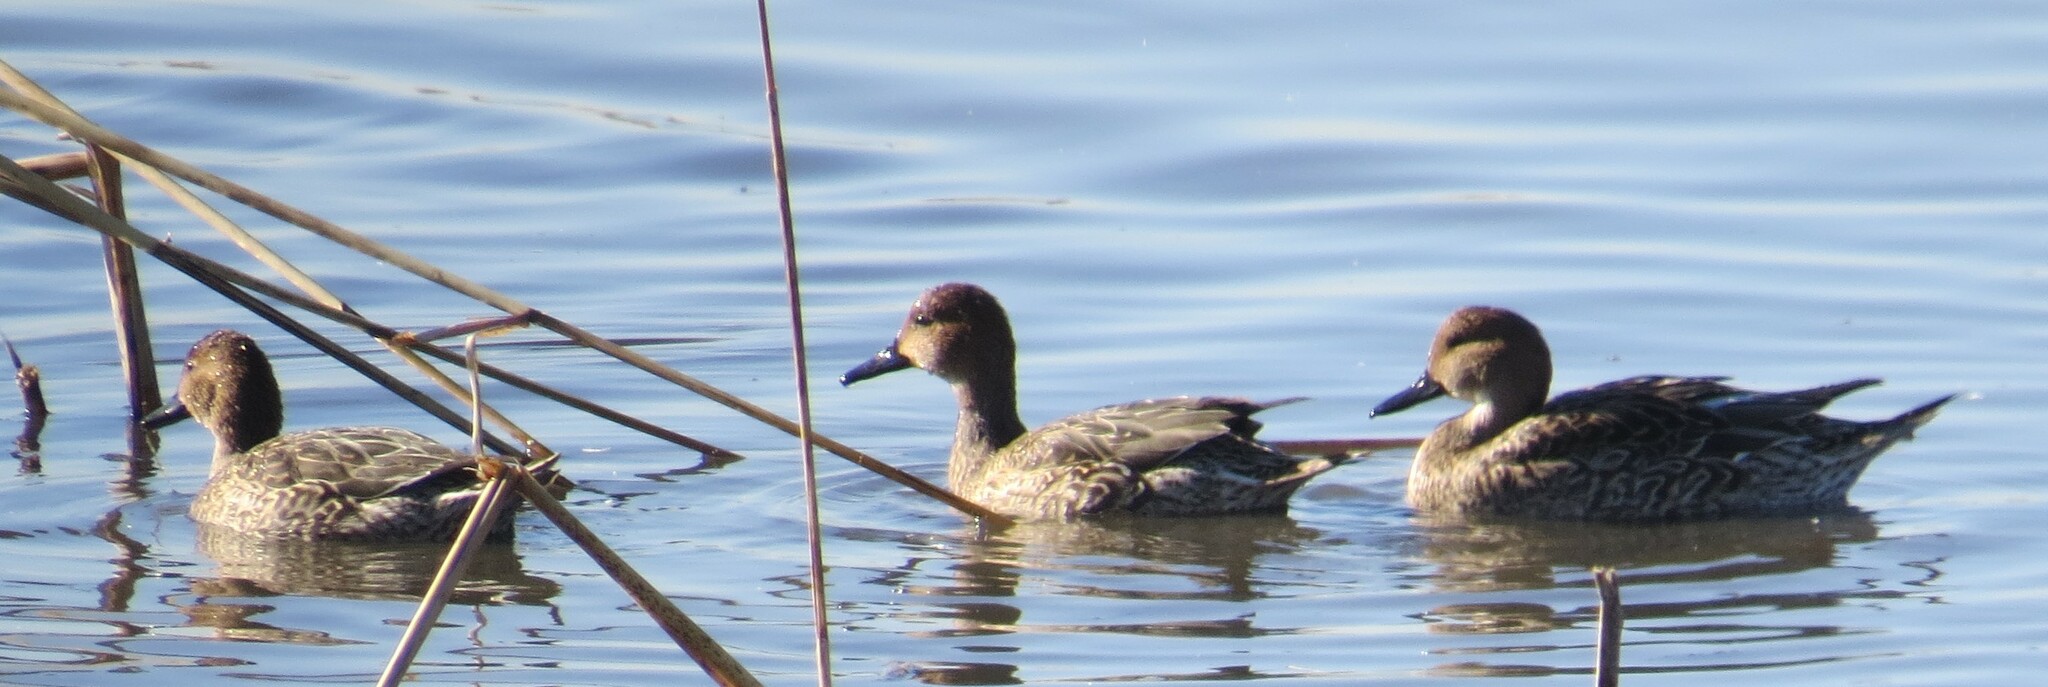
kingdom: Animalia
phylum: Chordata
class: Aves
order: Anseriformes
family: Anatidae
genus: Anas
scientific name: Anas acuta
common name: Northern pintail
